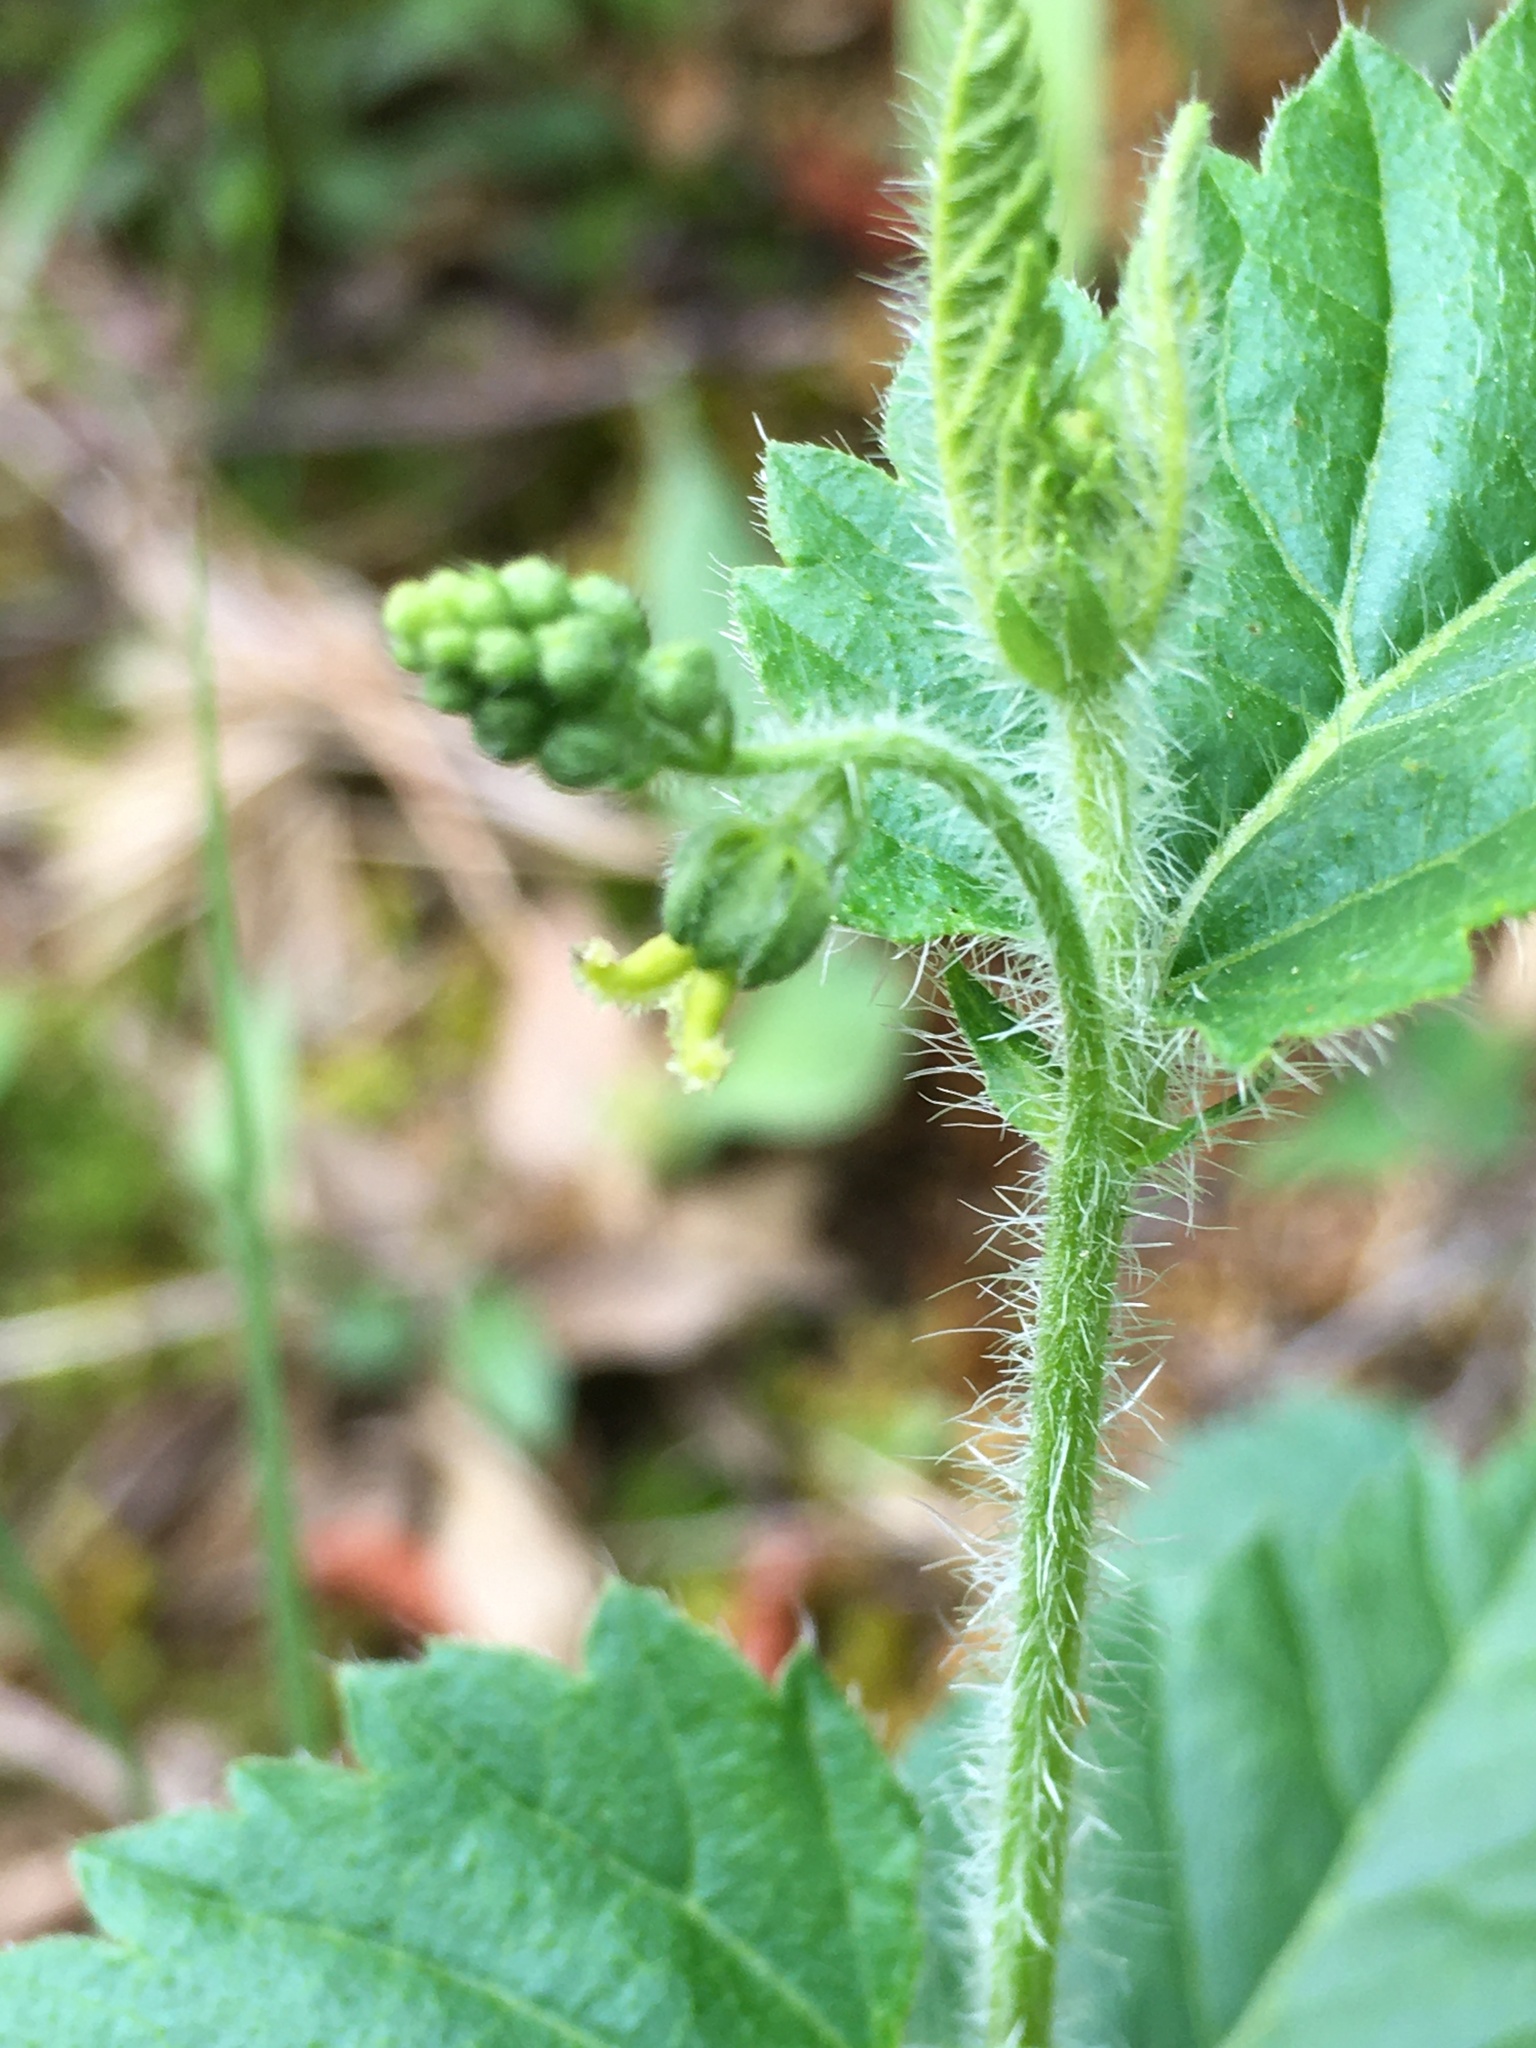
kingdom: Plantae
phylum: Tracheophyta
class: Magnoliopsida
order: Malpighiales
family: Euphorbiaceae
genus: Tragia
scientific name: Tragia urticifolia
